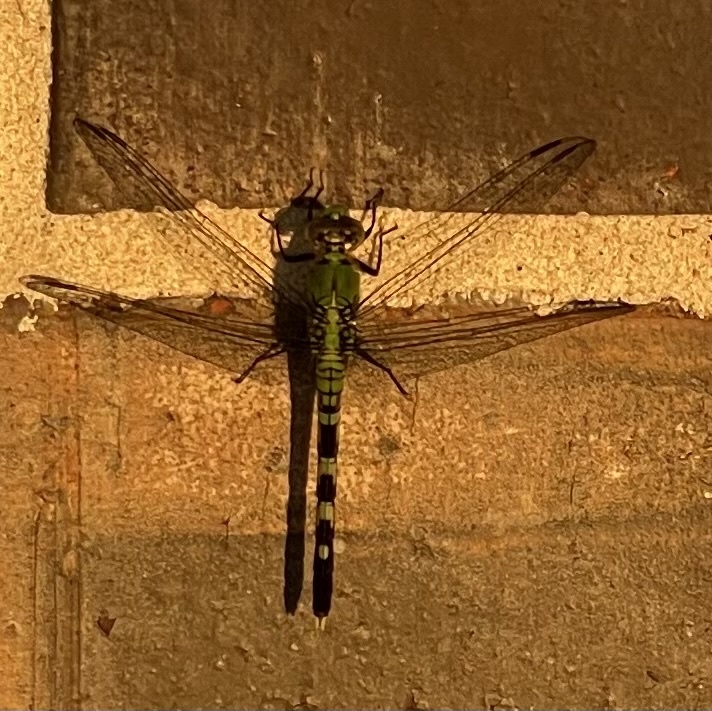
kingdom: Animalia
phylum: Arthropoda
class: Insecta
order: Odonata
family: Libellulidae
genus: Erythemis
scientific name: Erythemis simplicicollis
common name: Eastern pondhawk
